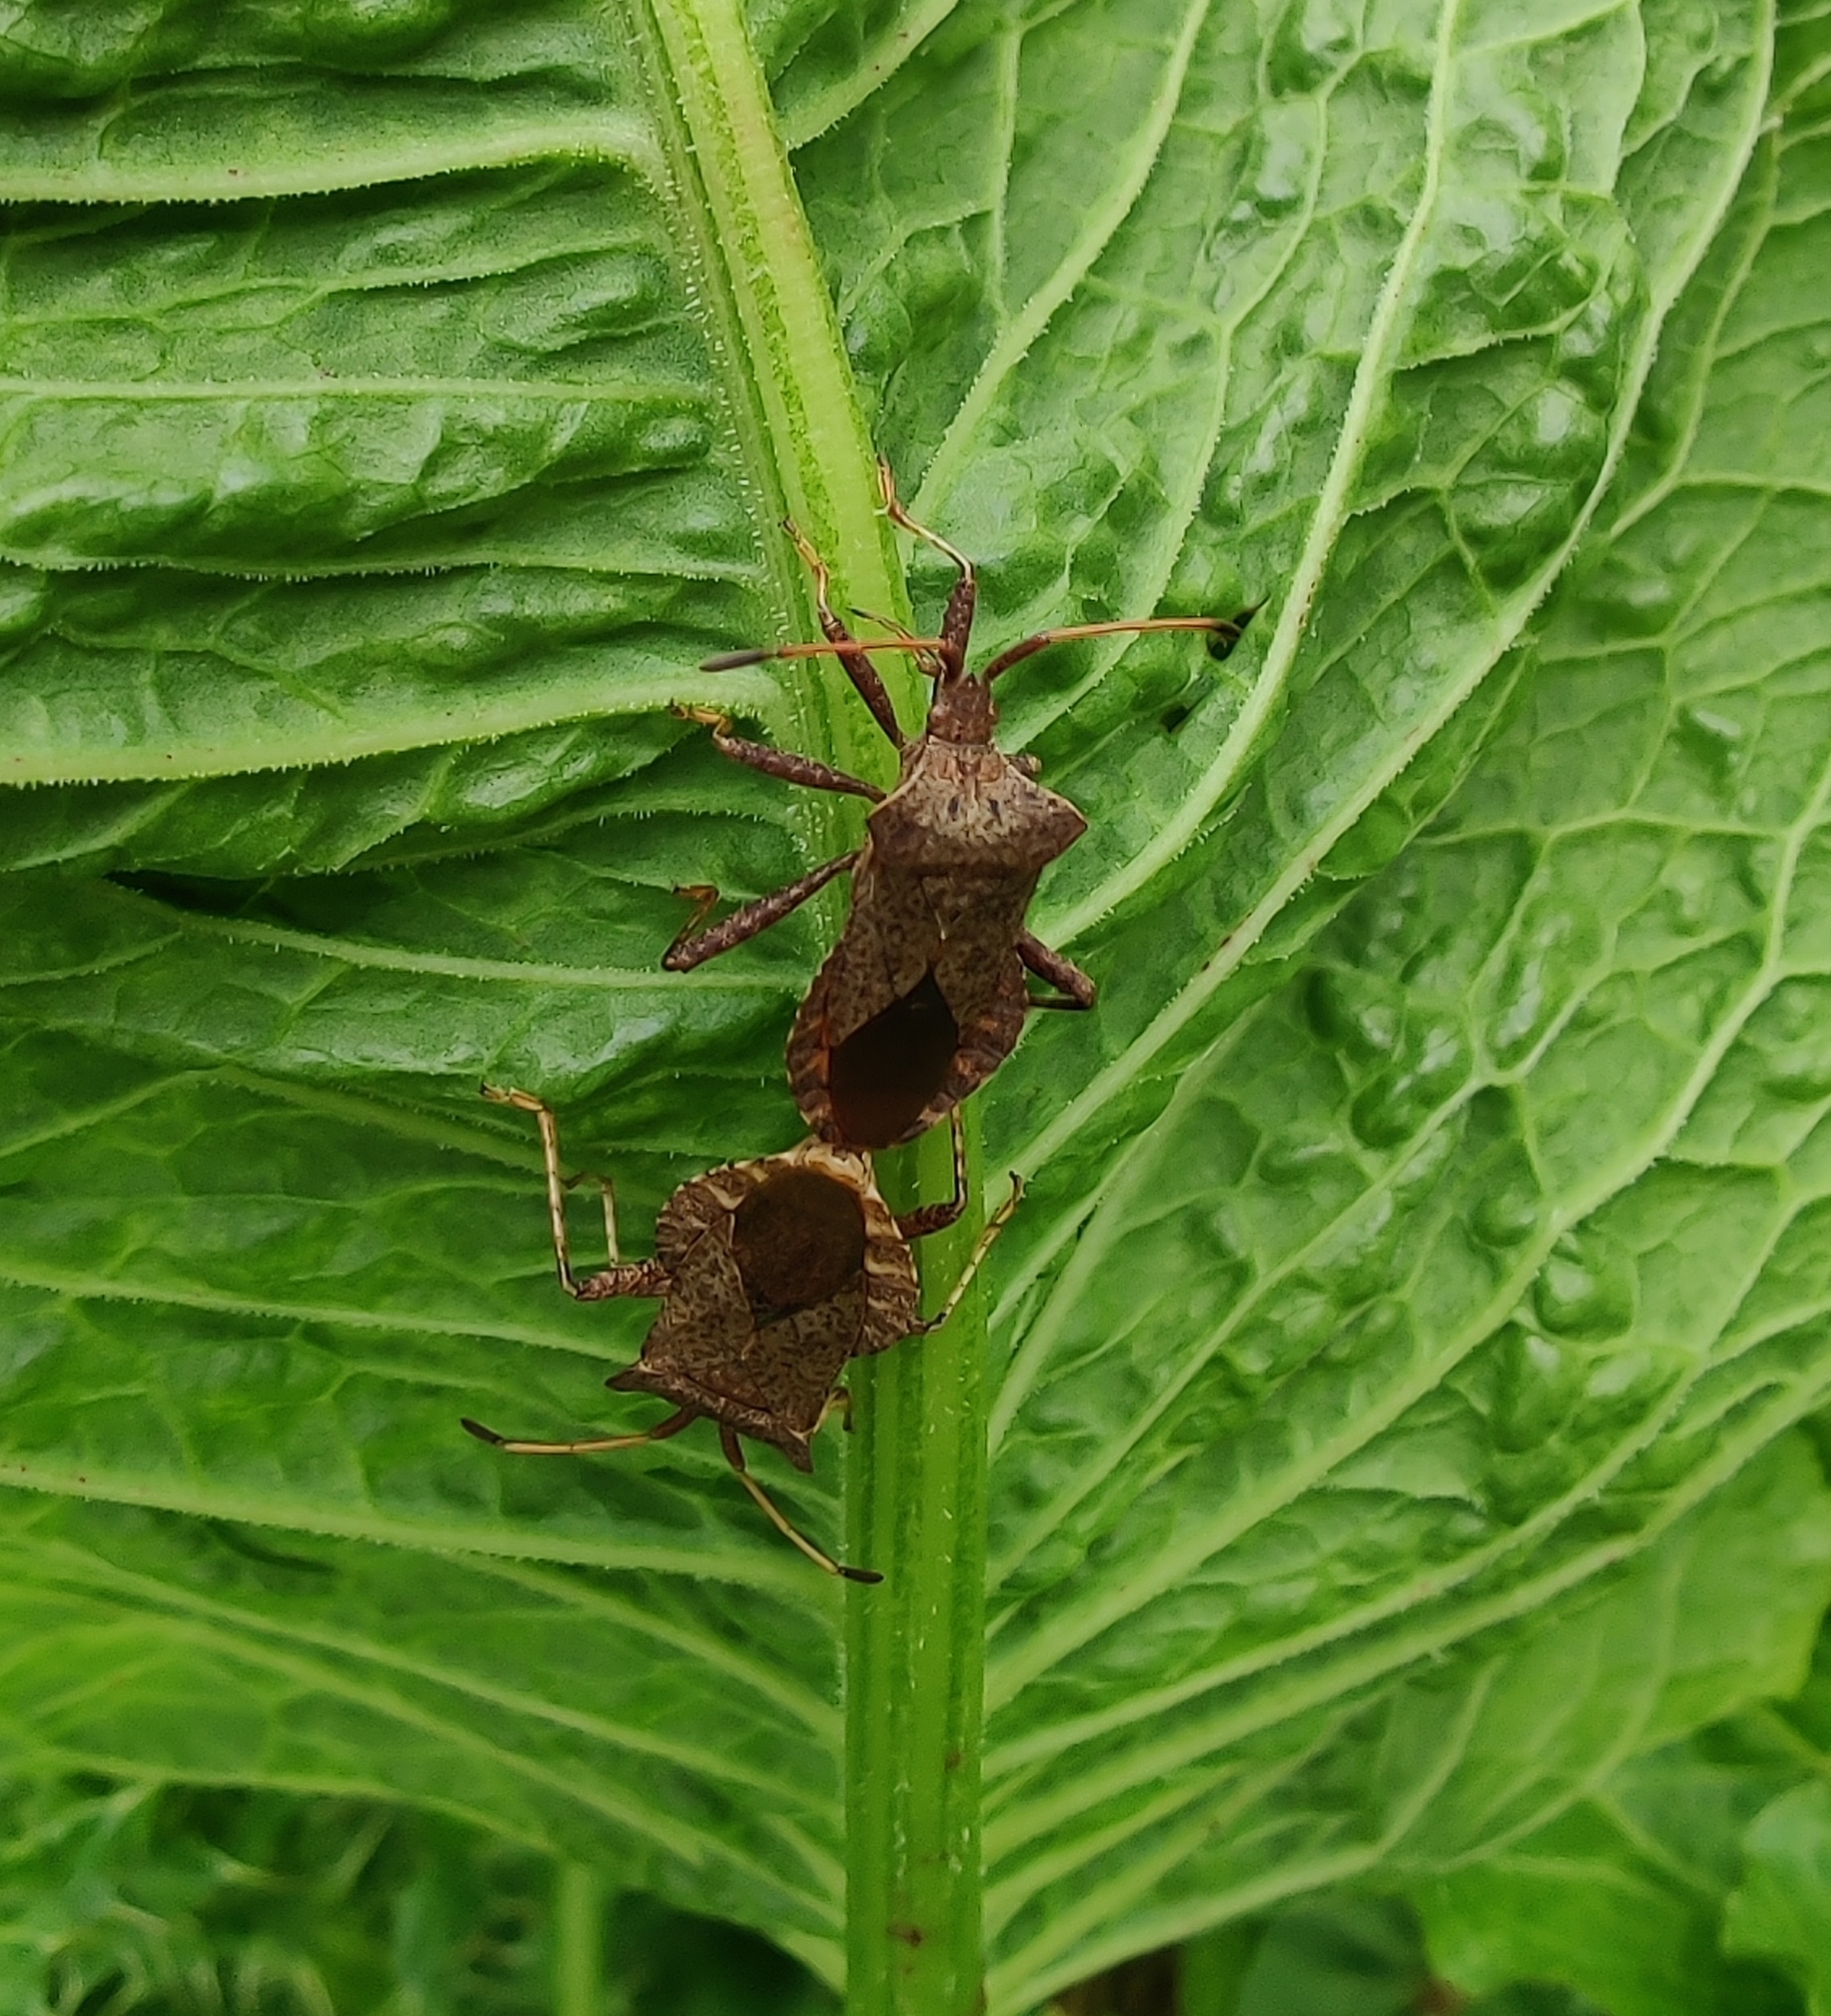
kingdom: Animalia
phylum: Arthropoda
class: Insecta
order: Hemiptera
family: Coreidae
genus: Coreus
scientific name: Coreus marginatus
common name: Dock bug
